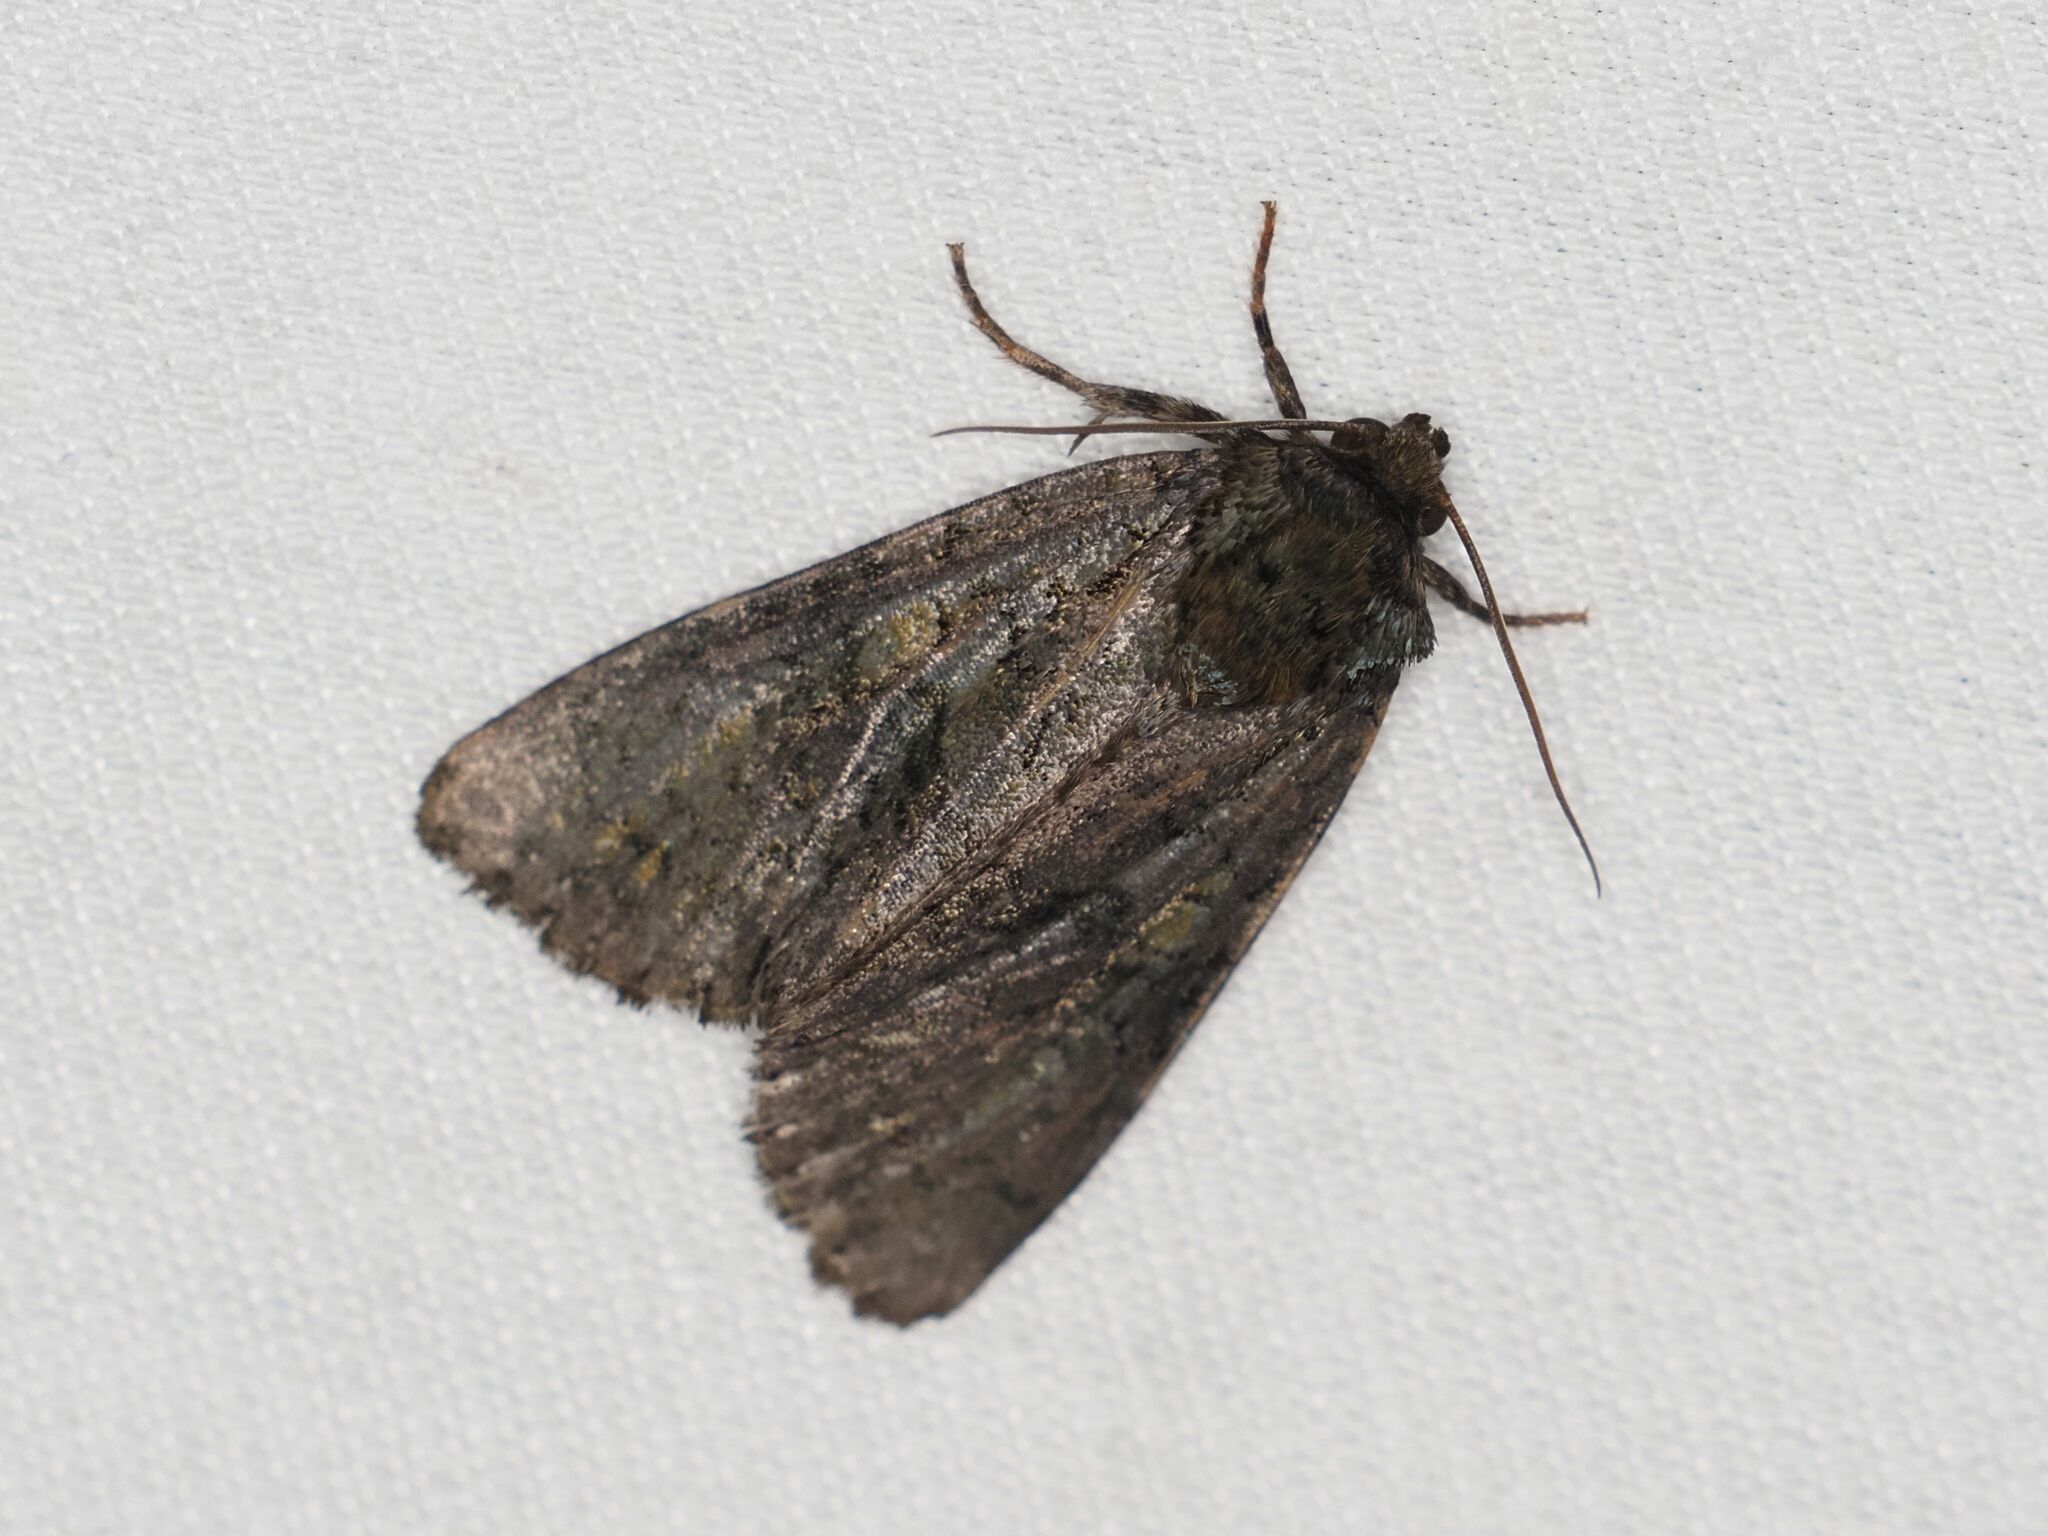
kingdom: Animalia
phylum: Arthropoda
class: Insecta
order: Lepidoptera
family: Noctuidae
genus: Craniophora
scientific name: Craniophora ligustri
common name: Coronet
